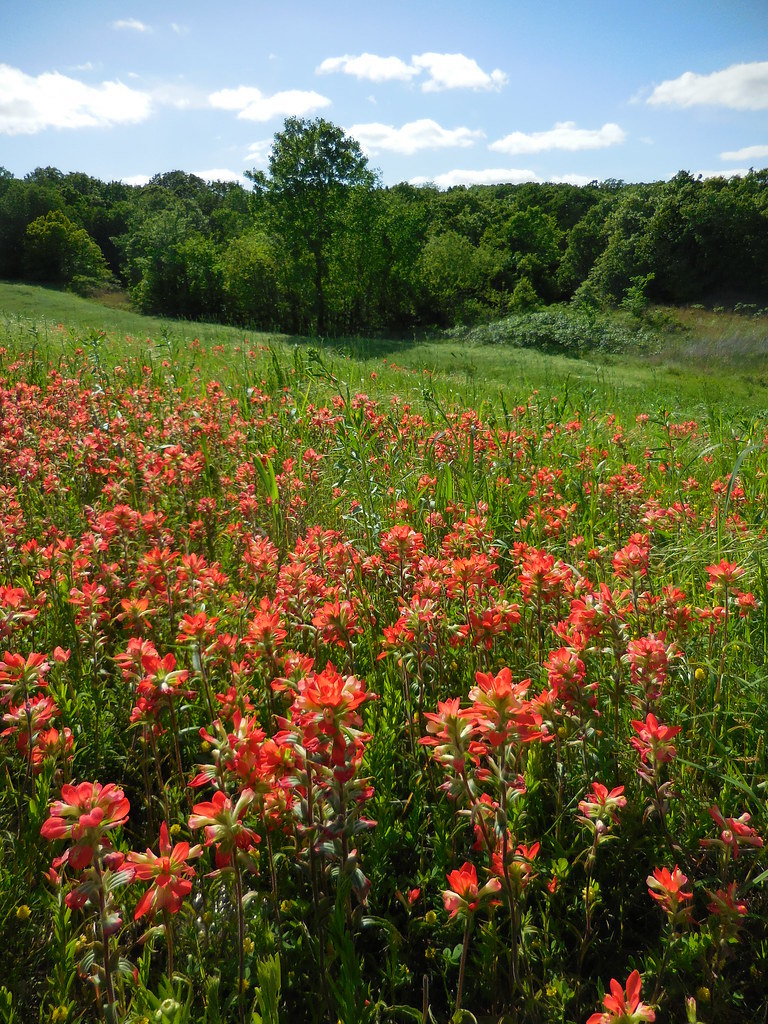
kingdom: Plantae
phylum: Tracheophyta
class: Magnoliopsida
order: Lamiales
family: Orobanchaceae
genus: Castilleja
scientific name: Castilleja indivisa
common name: Texas paintbrush
